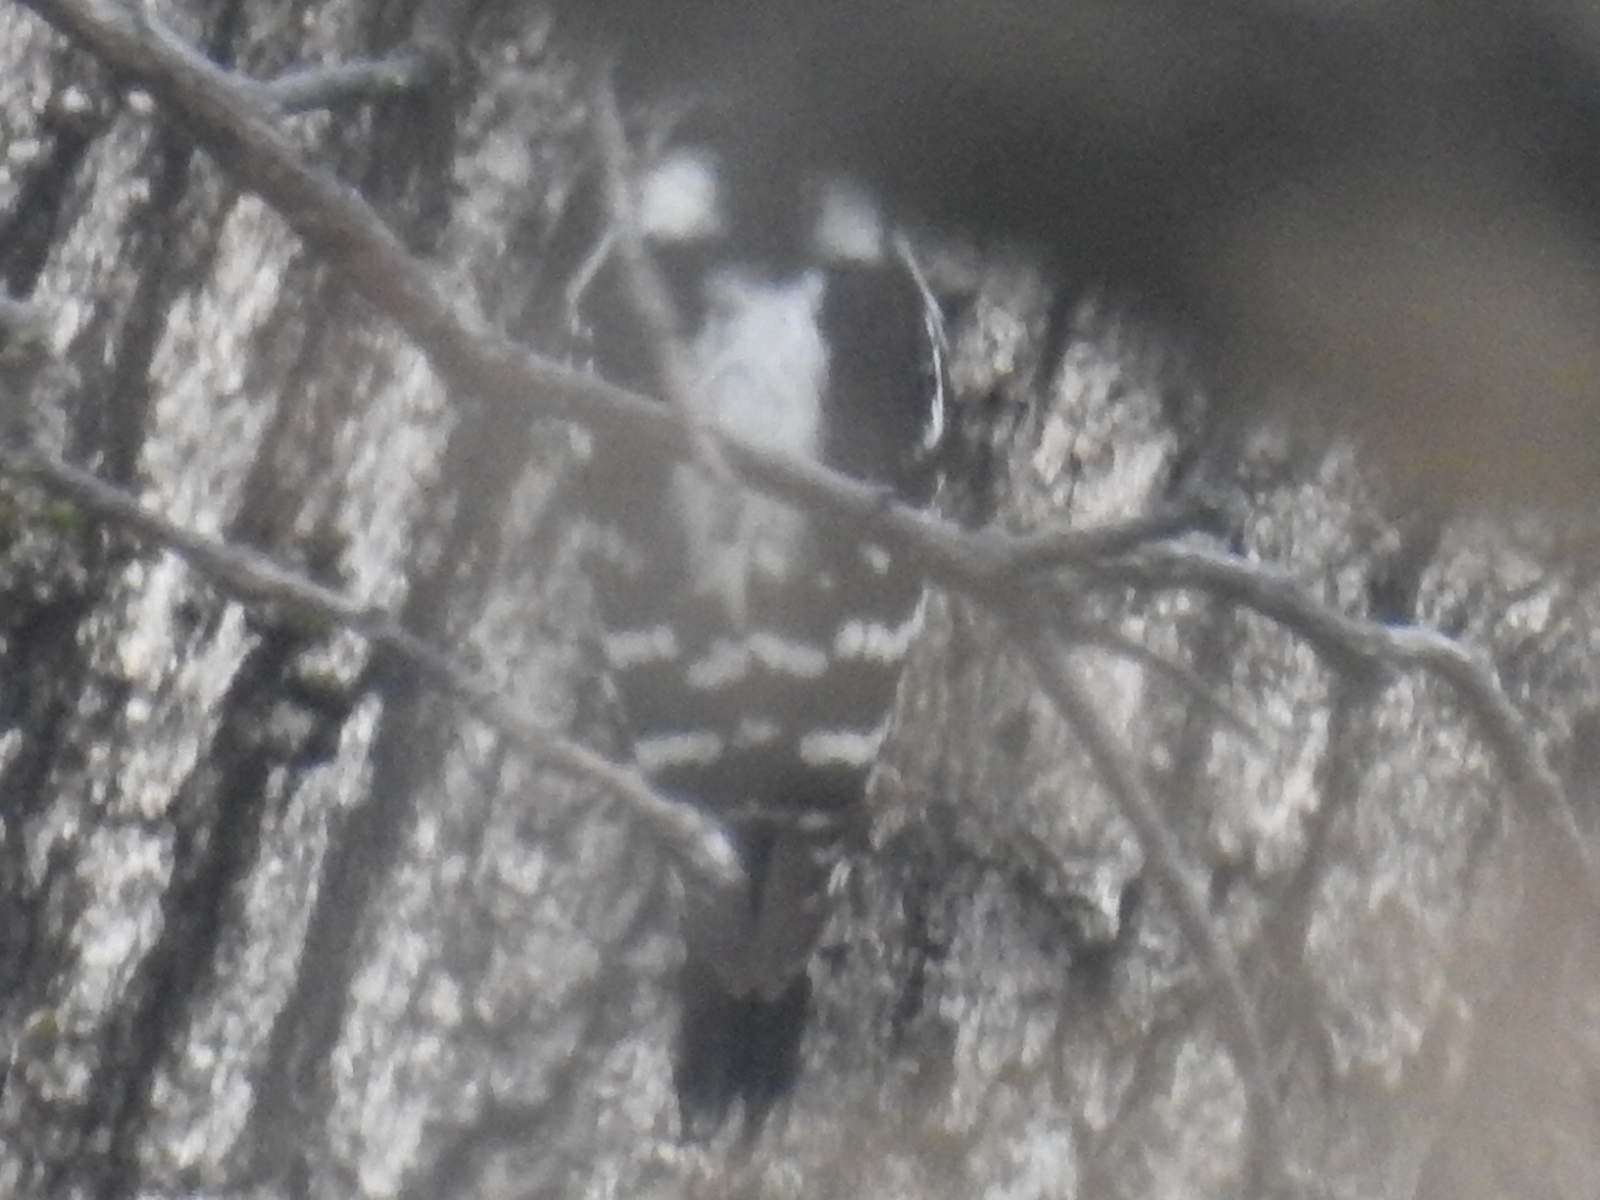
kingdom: Animalia
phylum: Chordata
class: Aves
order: Piciformes
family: Picidae
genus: Dryobates
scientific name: Dryobates pubescens
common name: Downy woodpecker
